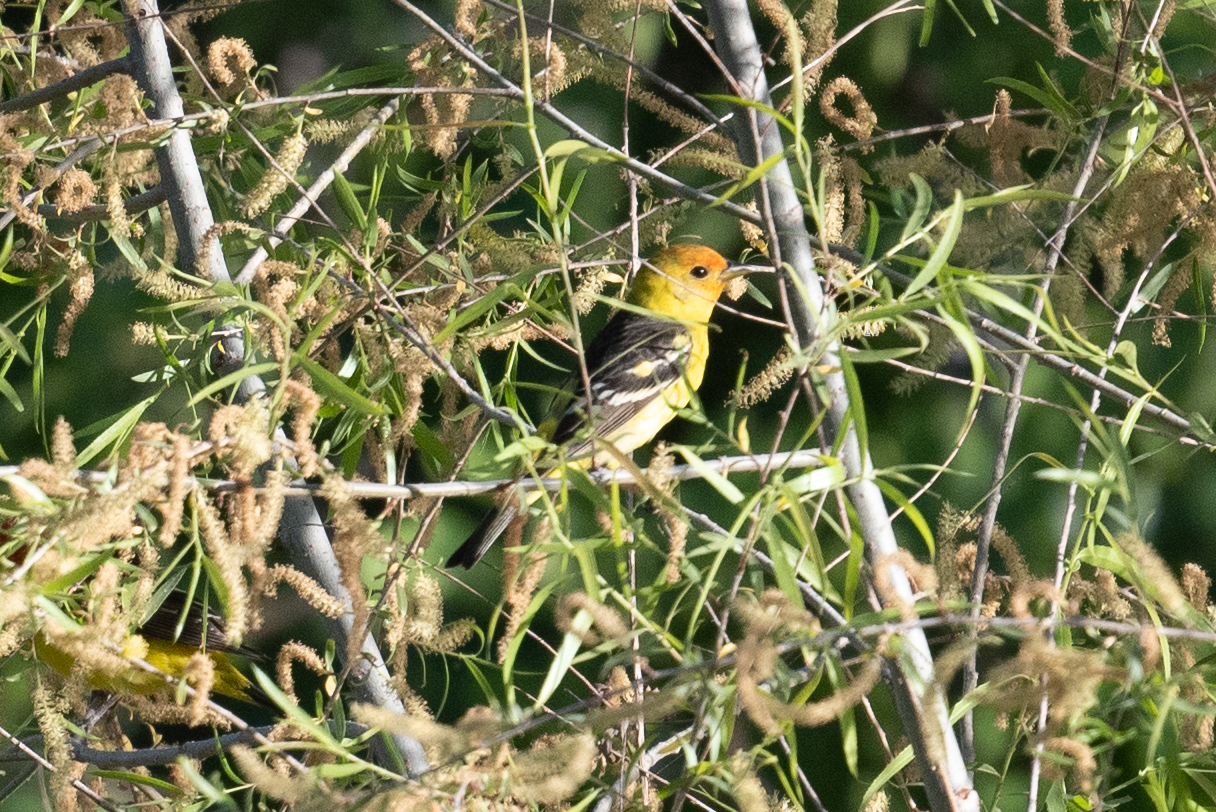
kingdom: Animalia
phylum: Chordata
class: Aves
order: Passeriformes
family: Cardinalidae
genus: Piranga
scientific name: Piranga ludoviciana
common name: Western tanager
